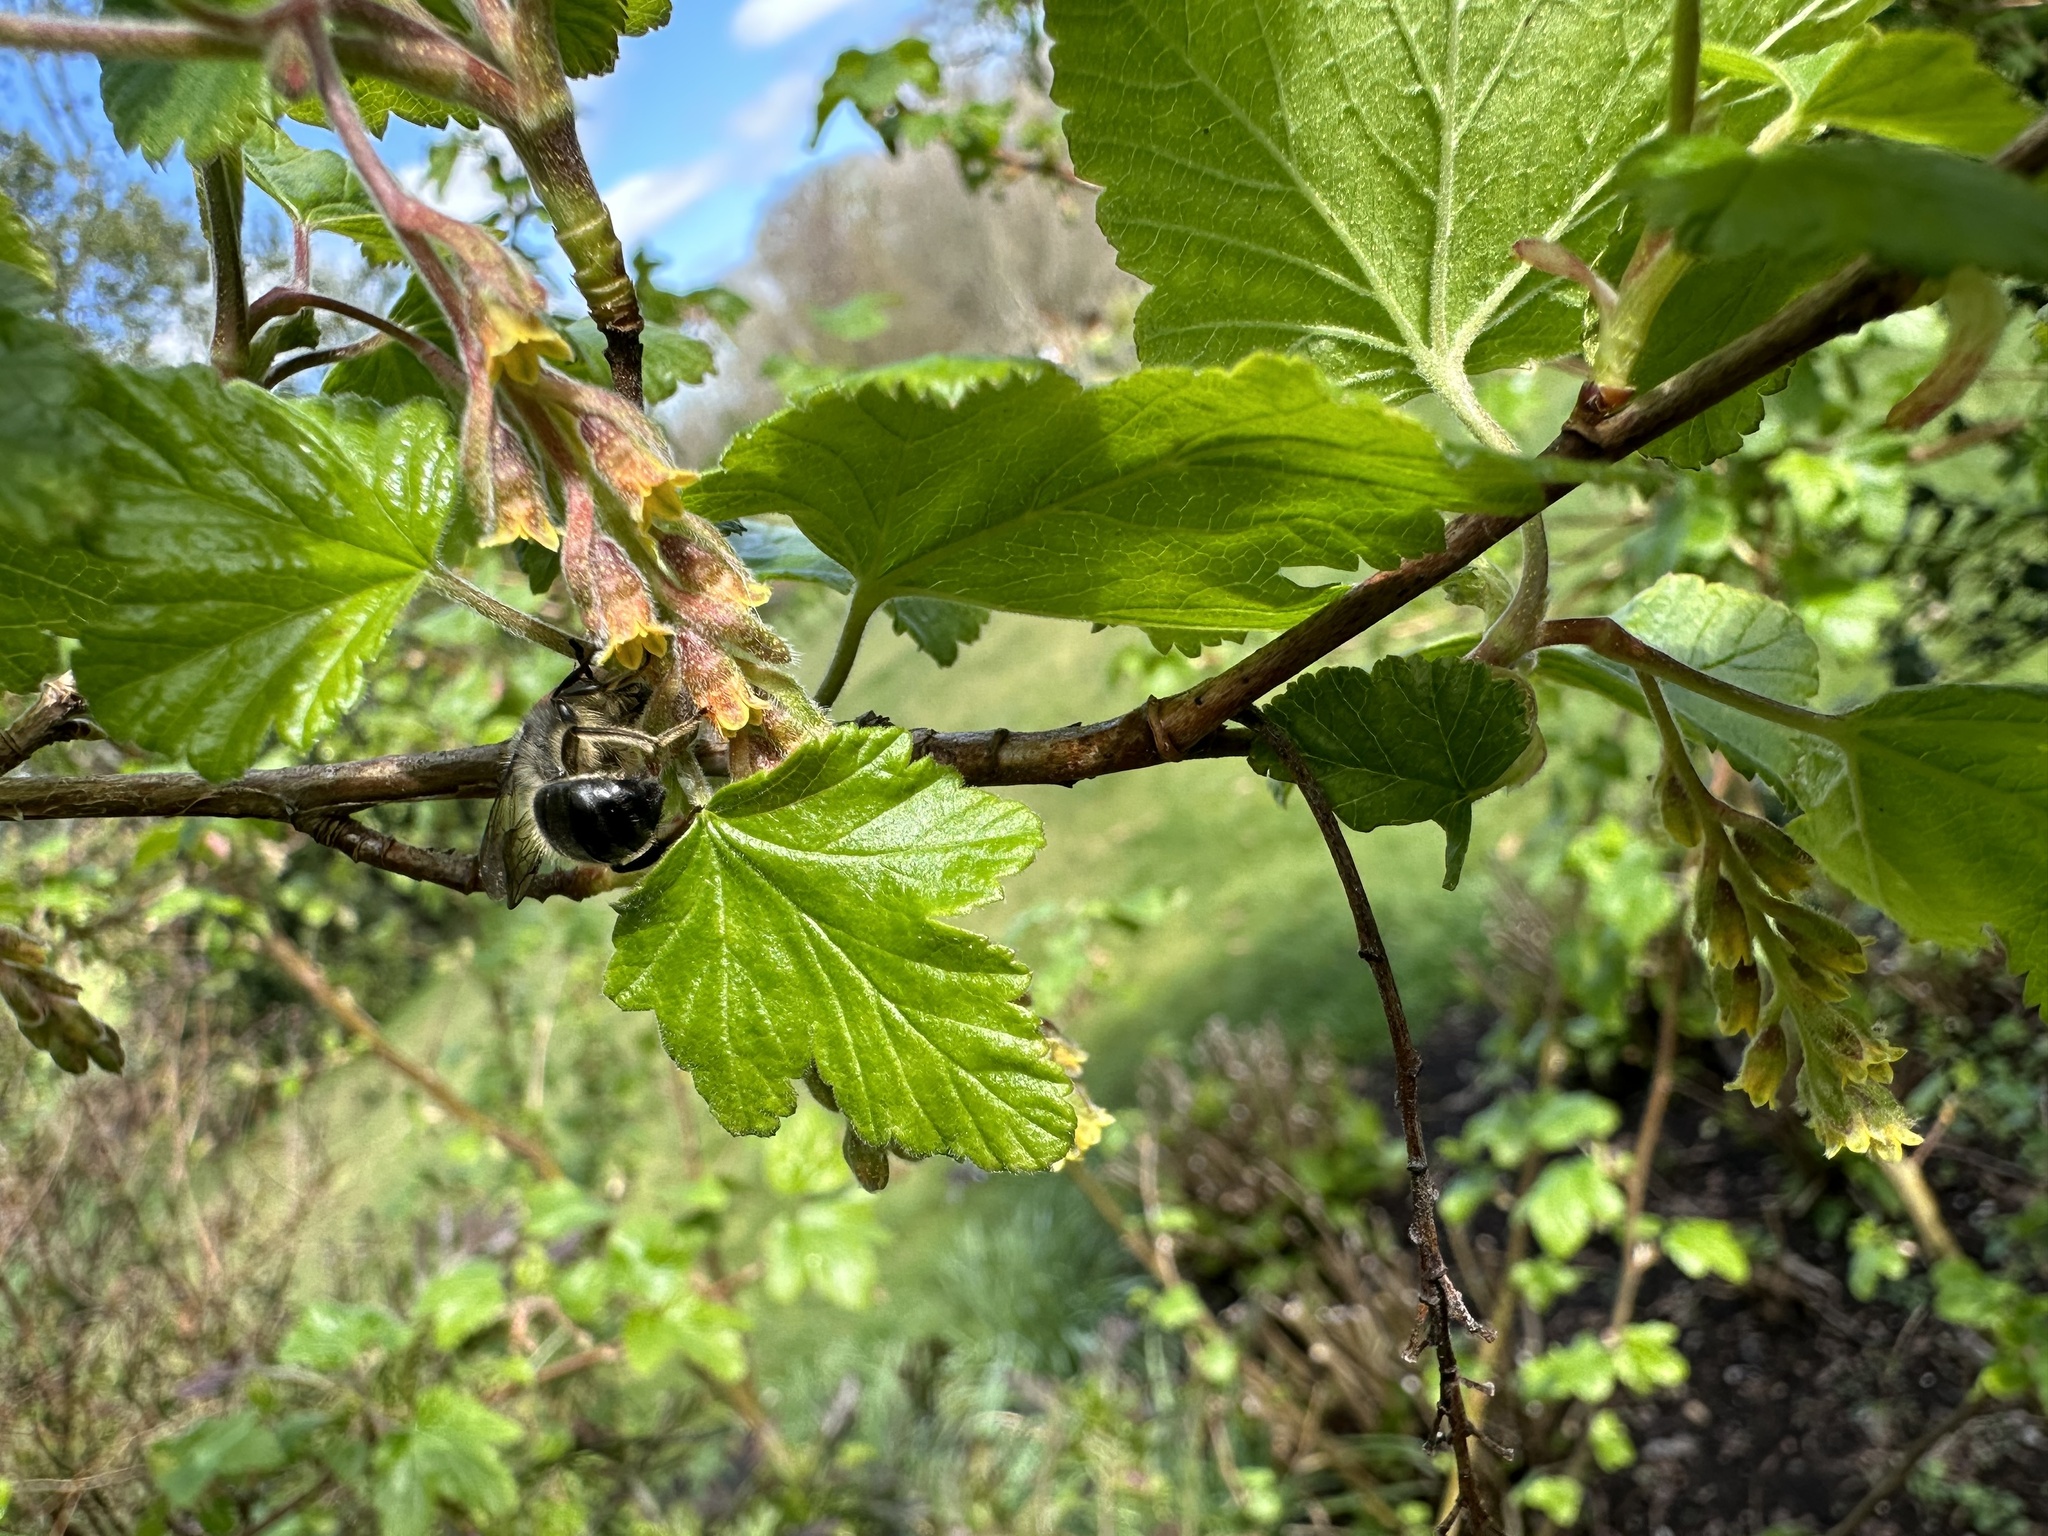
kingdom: Animalia
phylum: Arthropoda
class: Insecta
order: Hymenoptera
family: Colletidae
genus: Cadeguala
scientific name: Cadeguala albopilosa
